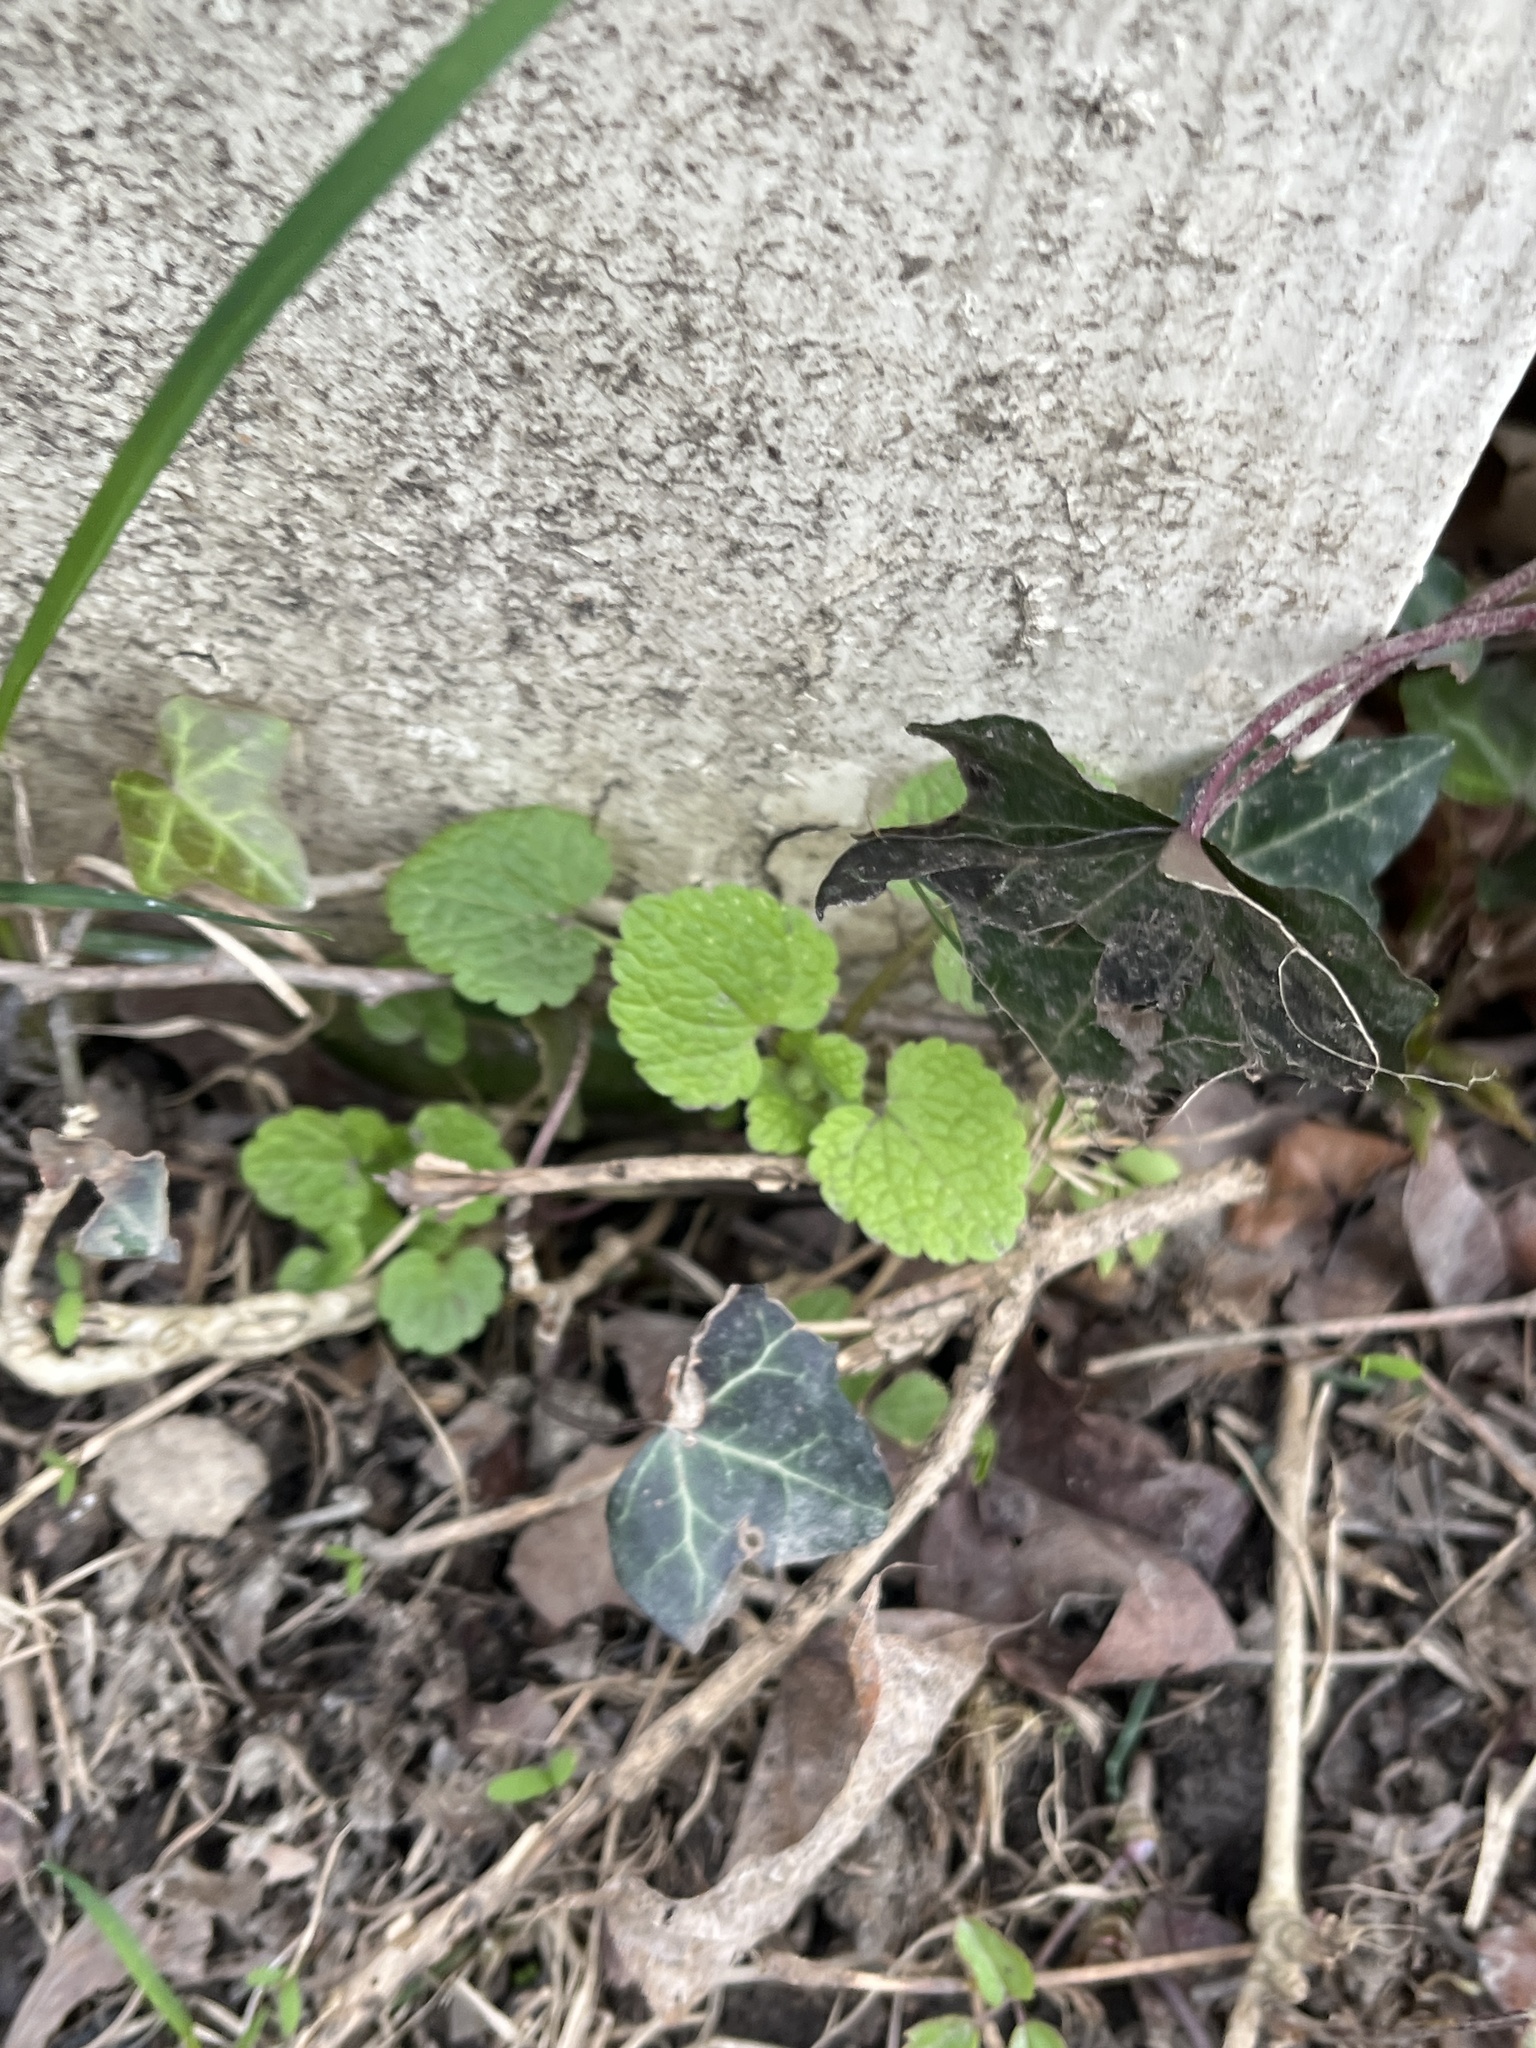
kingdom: Plantae
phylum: Tracheophyta
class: Magnoliopsida
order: Lamiales
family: Lamiaceae
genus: Lamium
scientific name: Lamium purpureum
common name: Red dead-nettle
